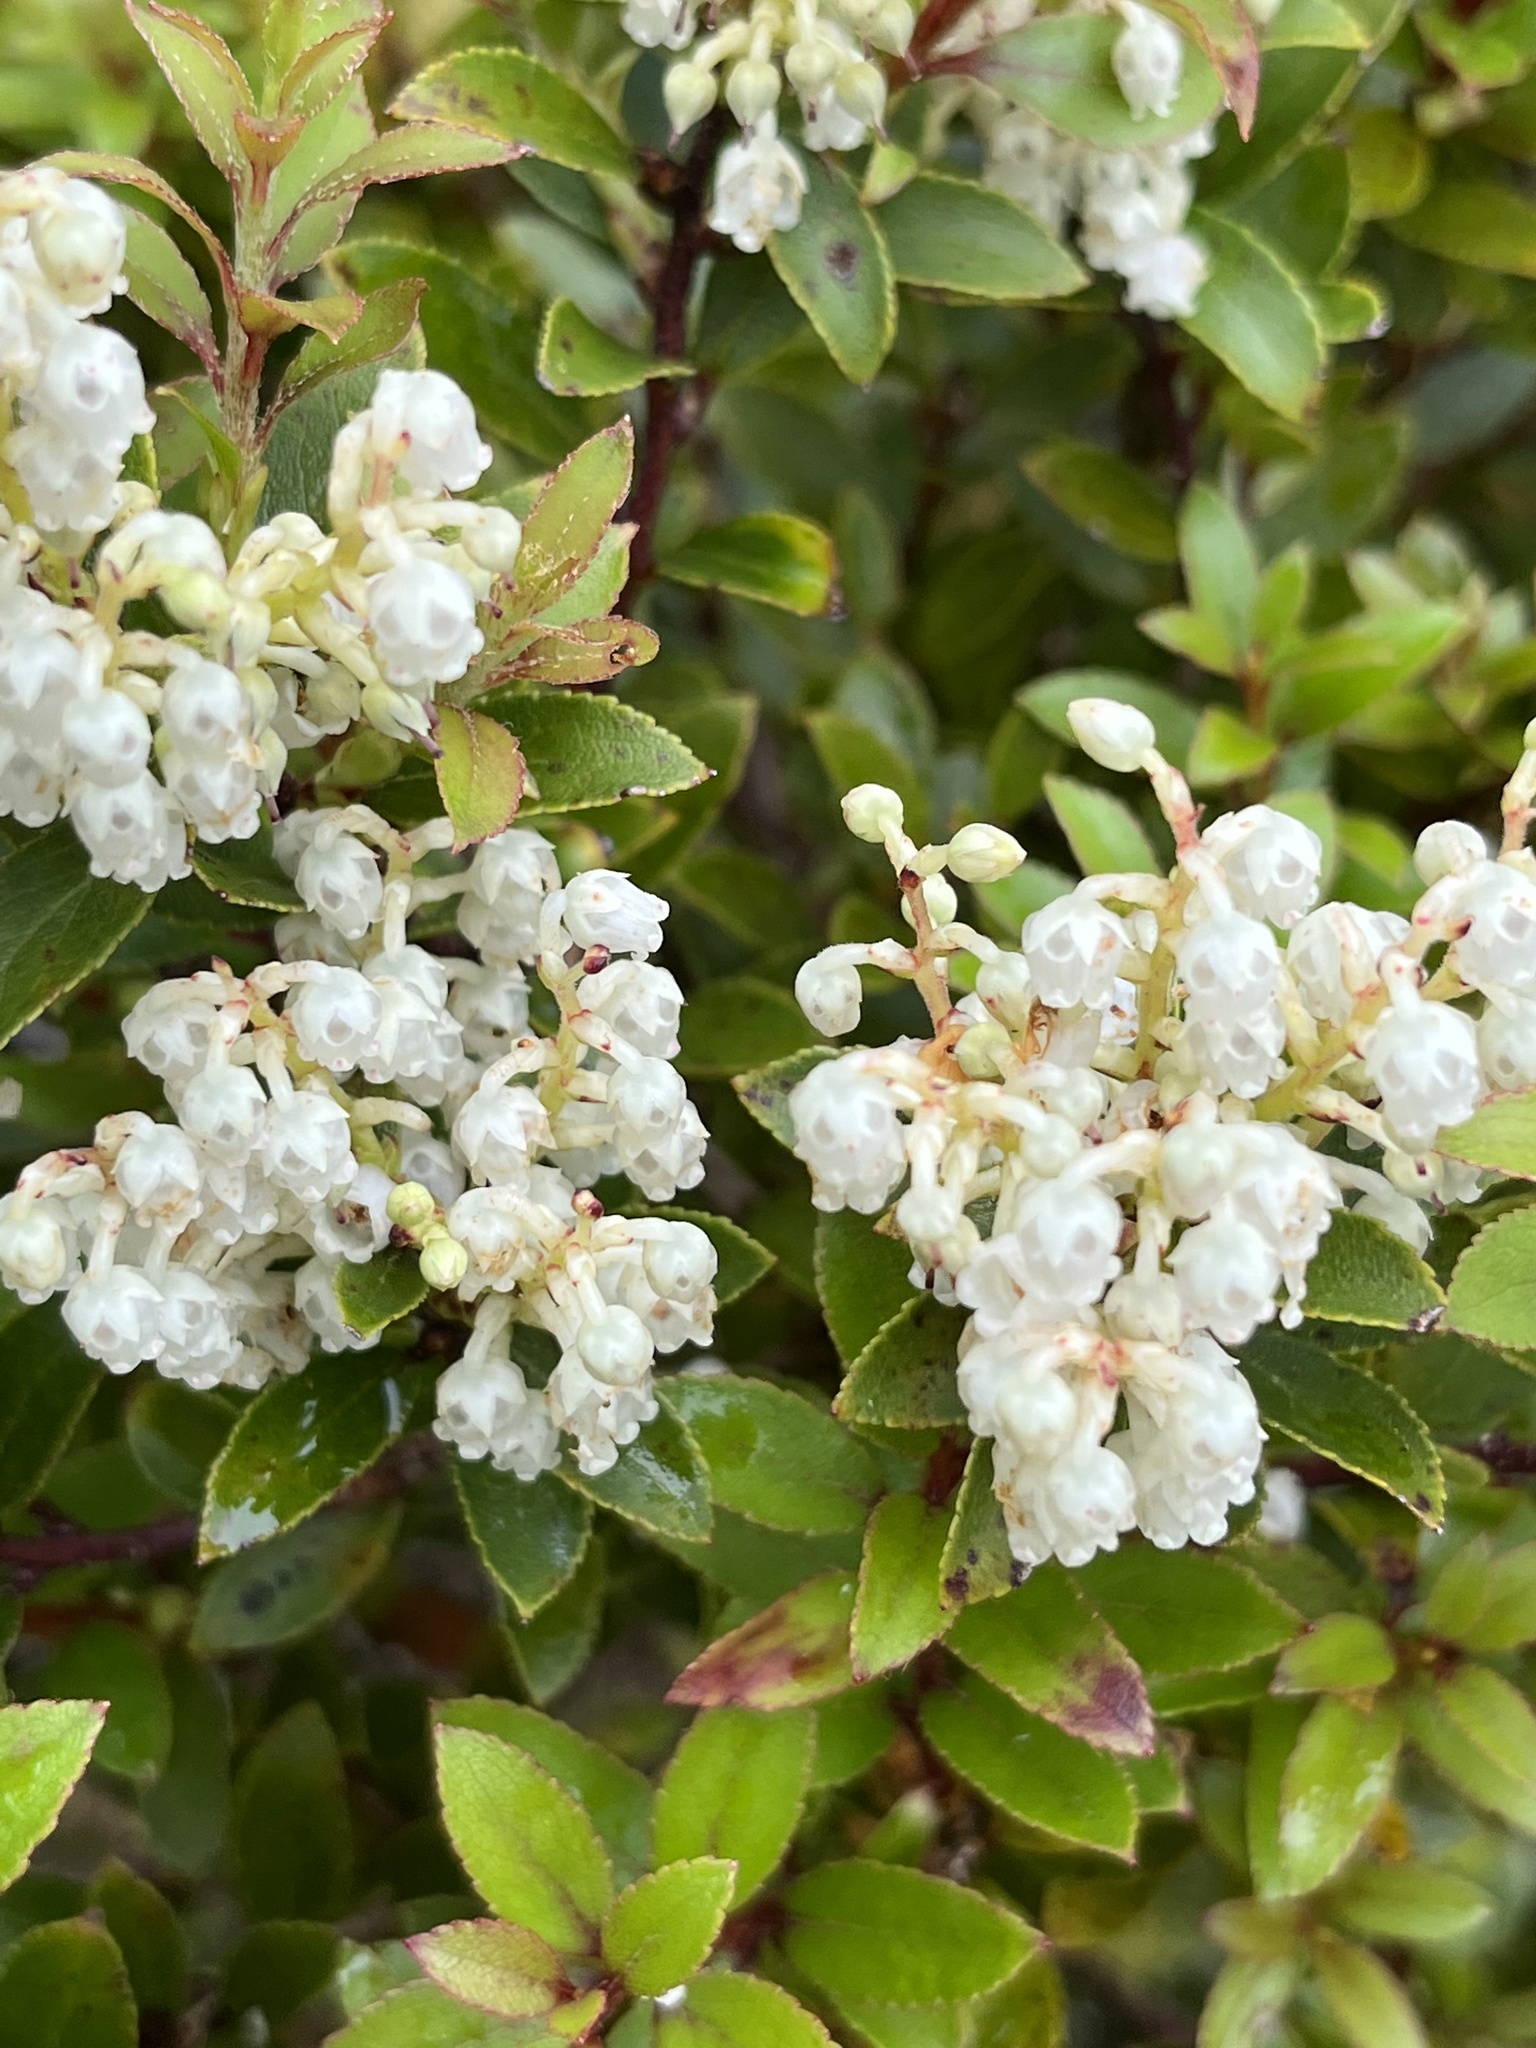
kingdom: Plantae
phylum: Tracheophyta
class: Magnoliopsida
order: Ericales
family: Ericaceae
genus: Gaultheria
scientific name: Gaultheria rupestris
